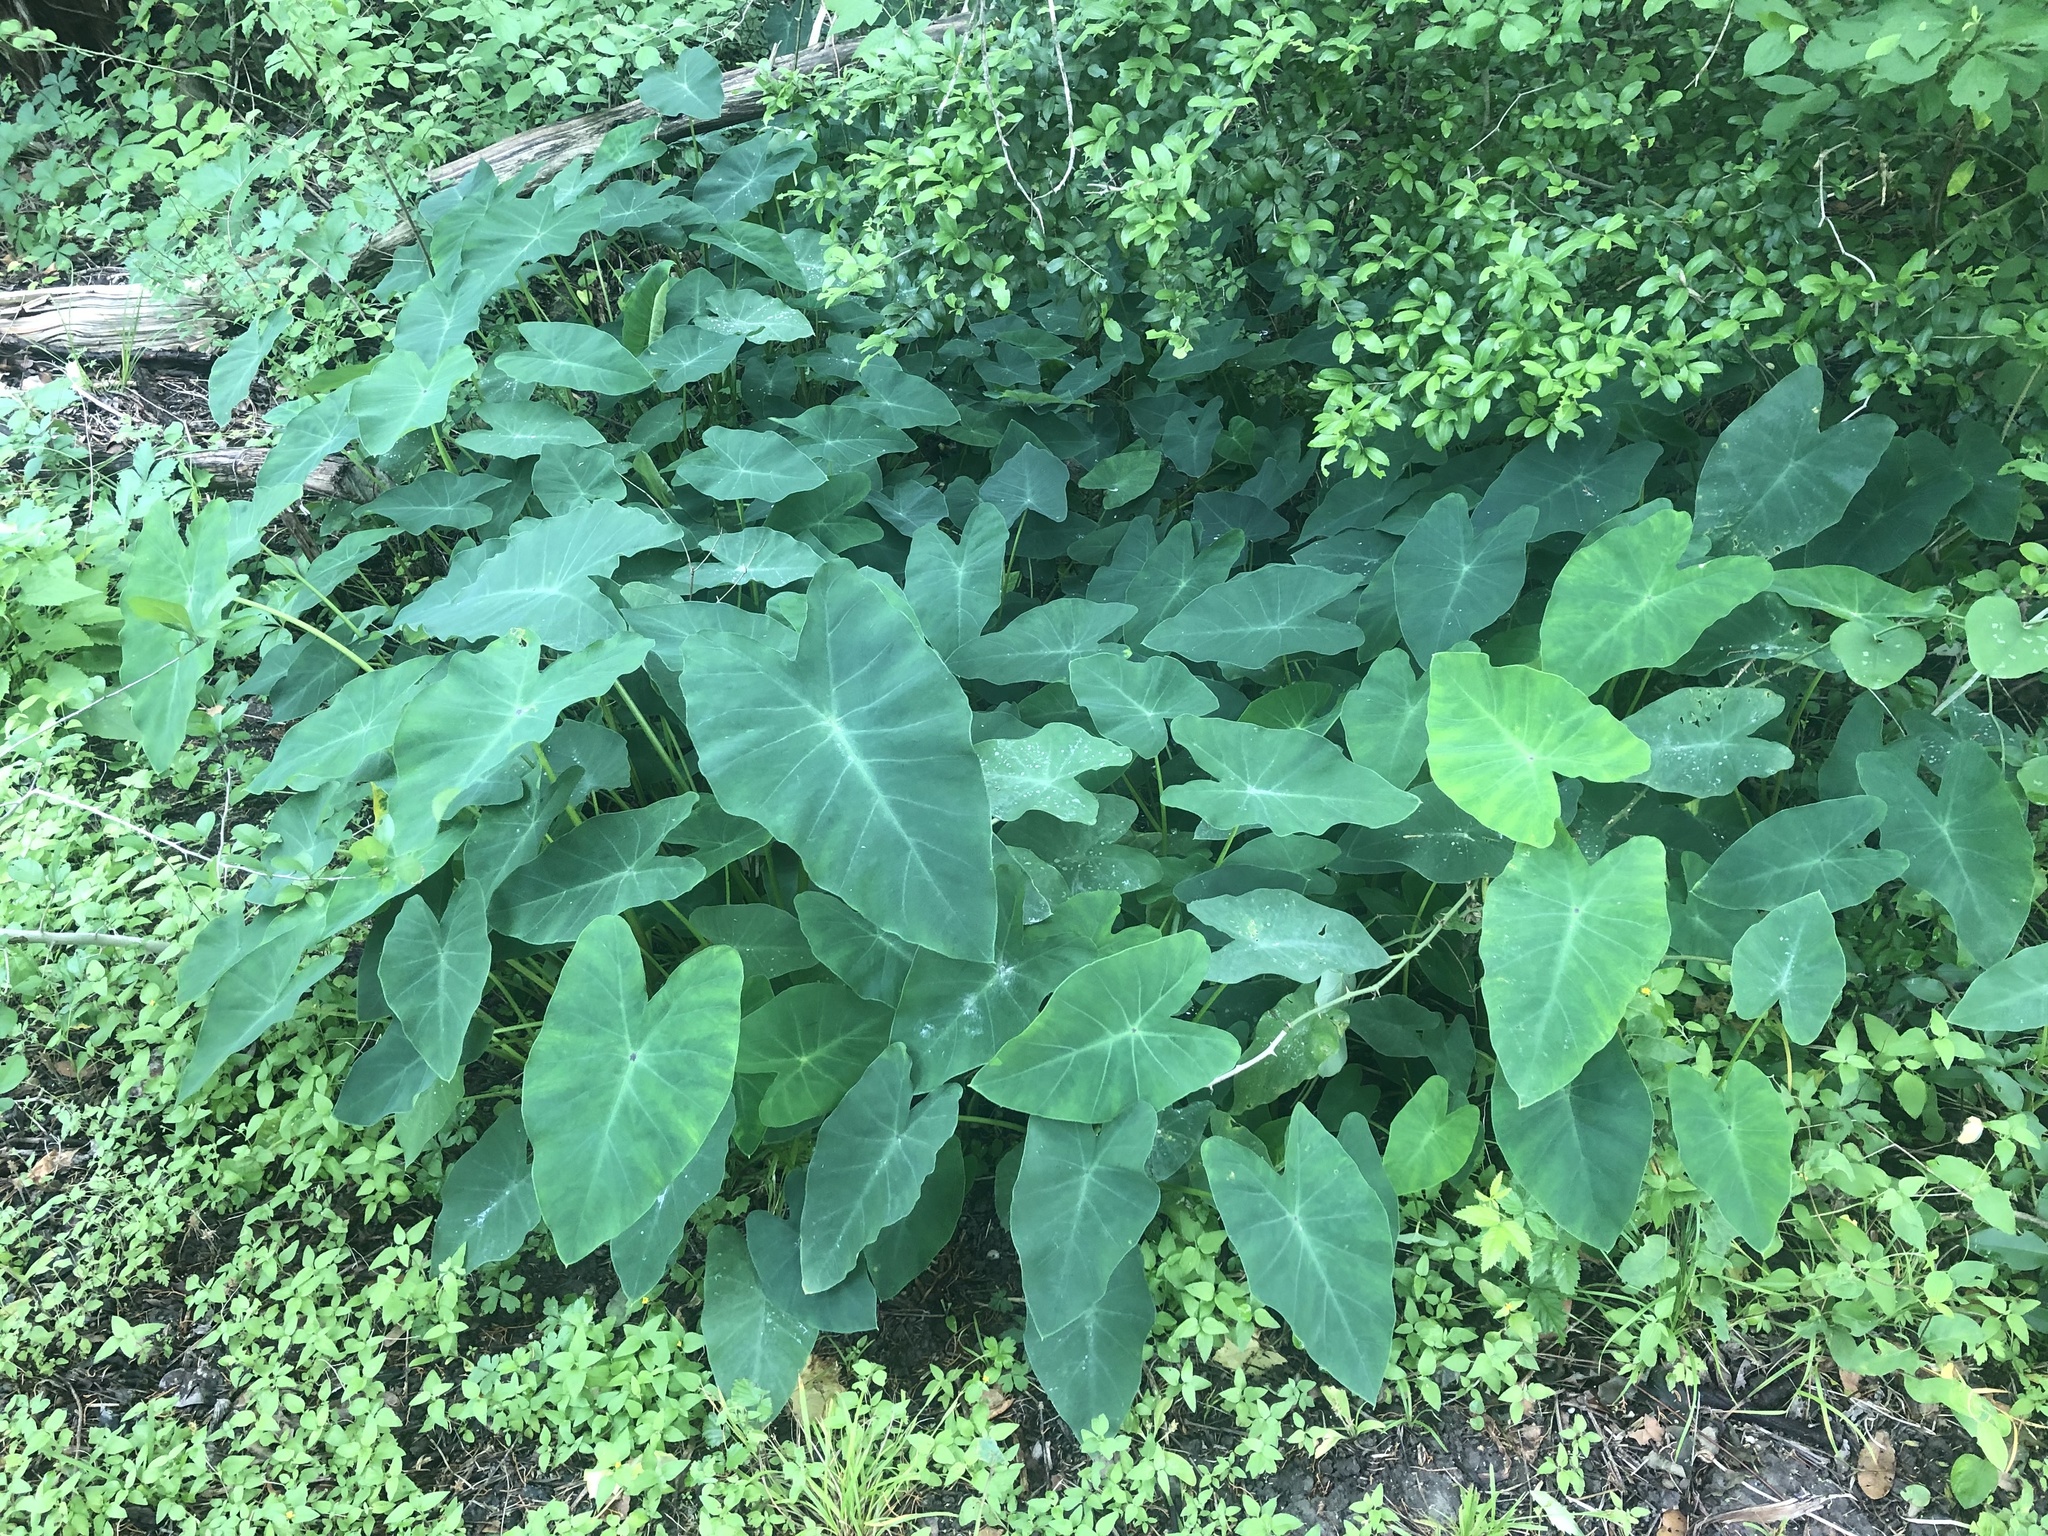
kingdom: Plantae
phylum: Tracheophyta
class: Liliopsida
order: Alismatales
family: Araceae
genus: Colocasia
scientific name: Colocasia esculenta
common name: Taro
